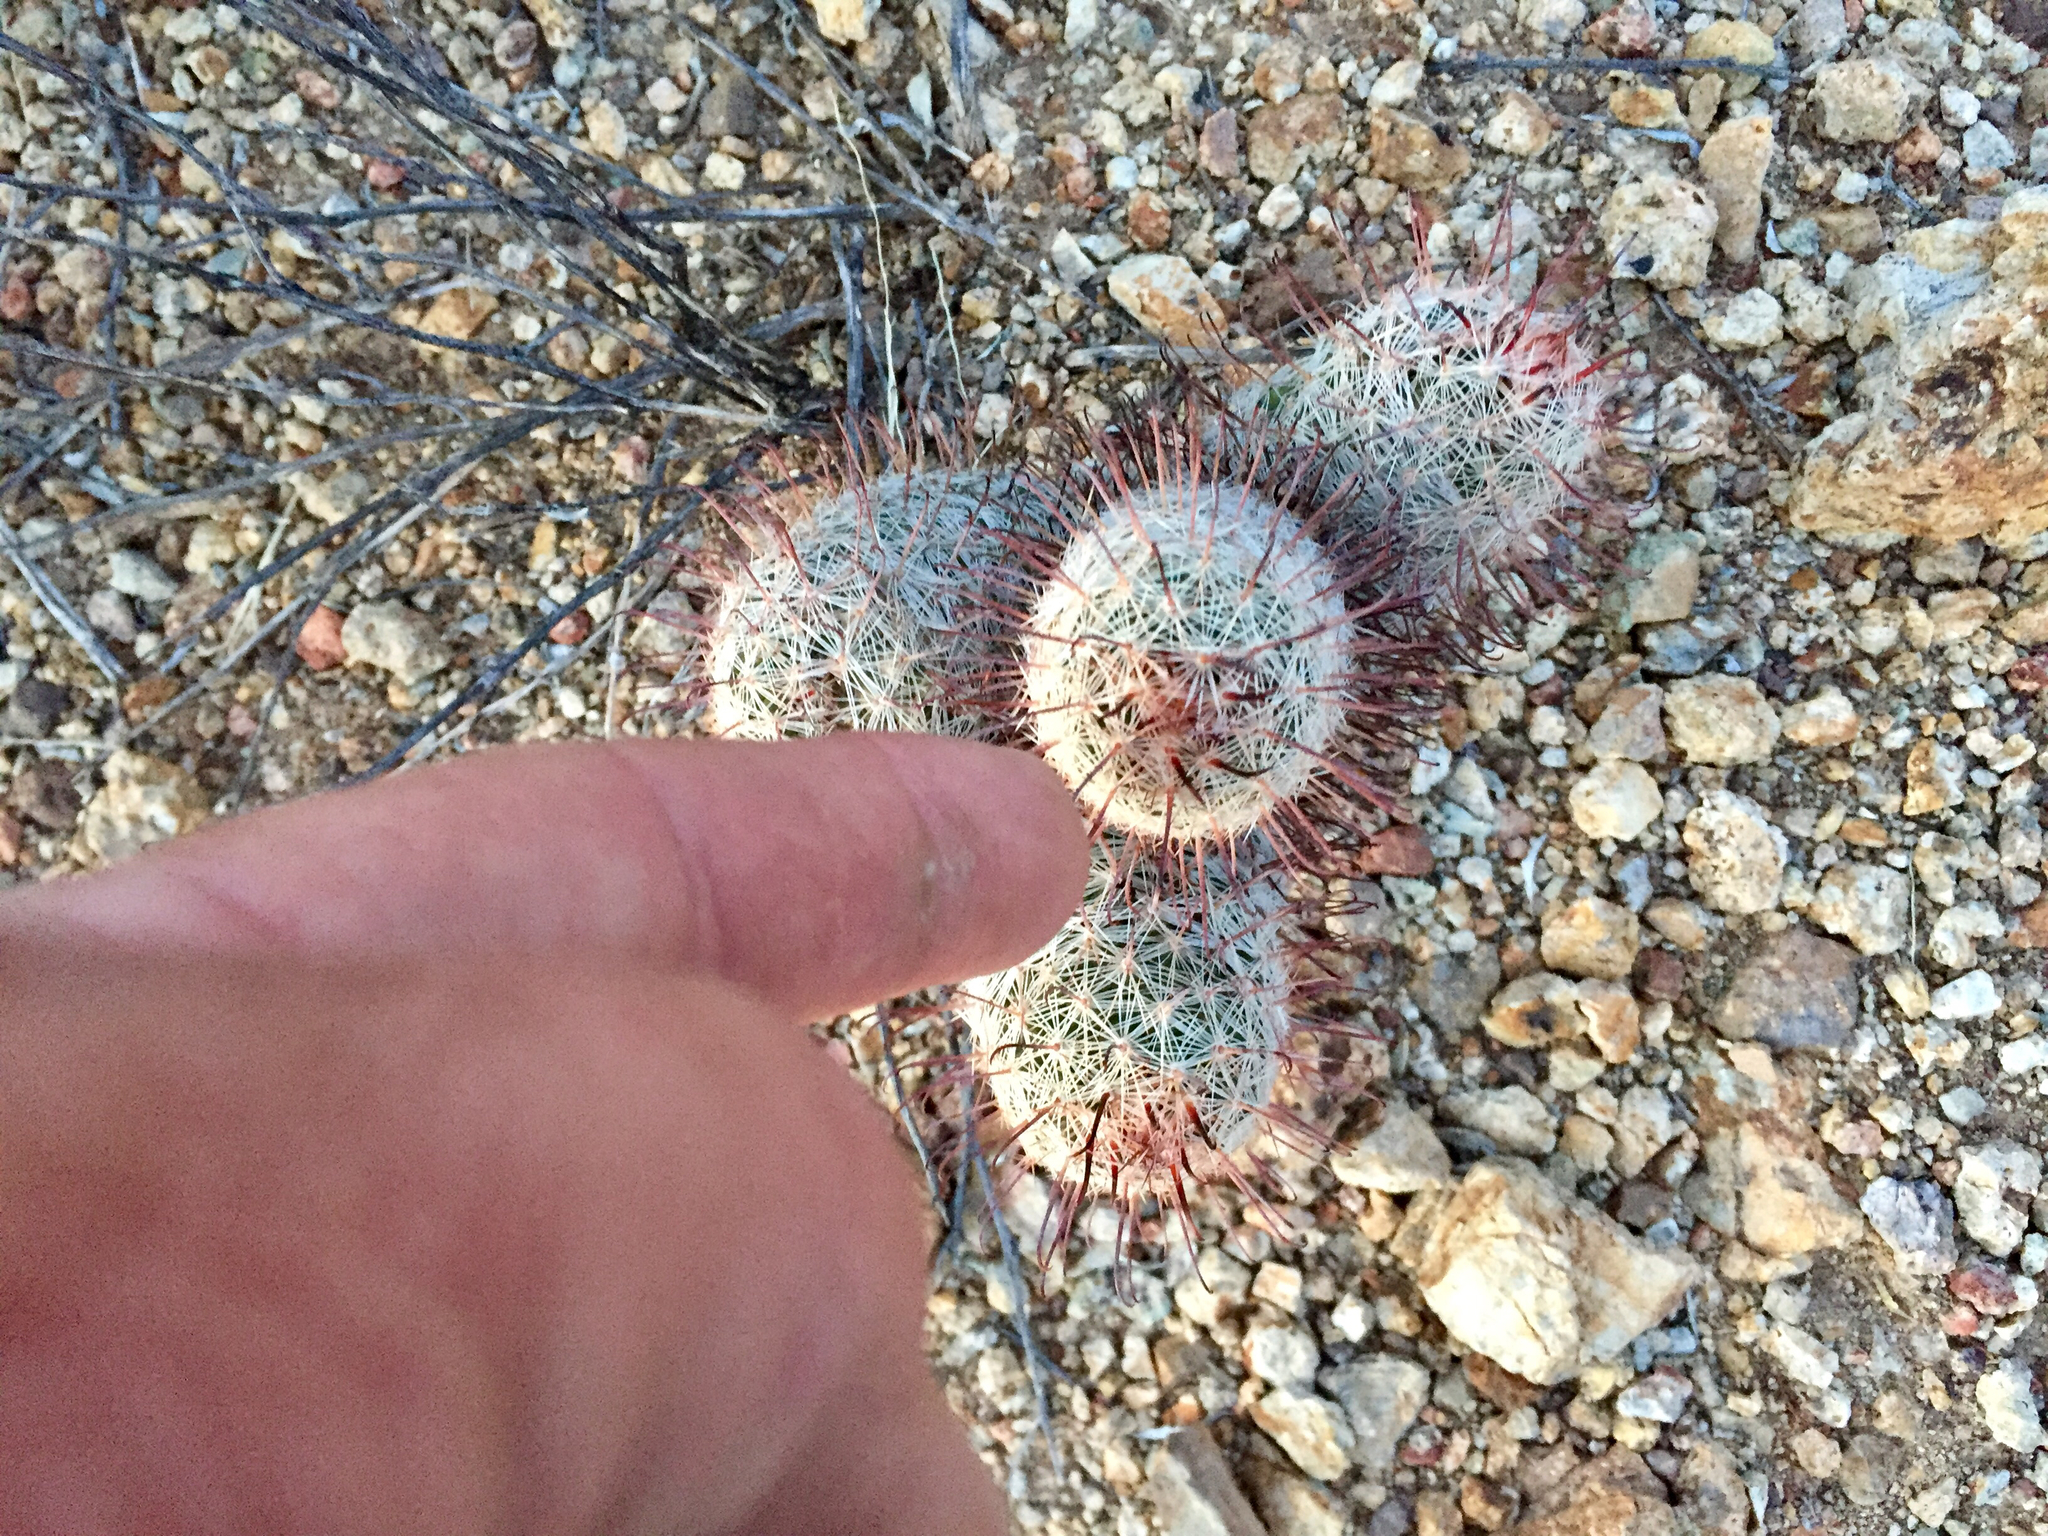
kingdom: Plantae
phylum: Tracheophyta
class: Magnoliopsida
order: Caryophyllales
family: Cactaceae
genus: Cochemiea
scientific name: Cochemiea grahamii
